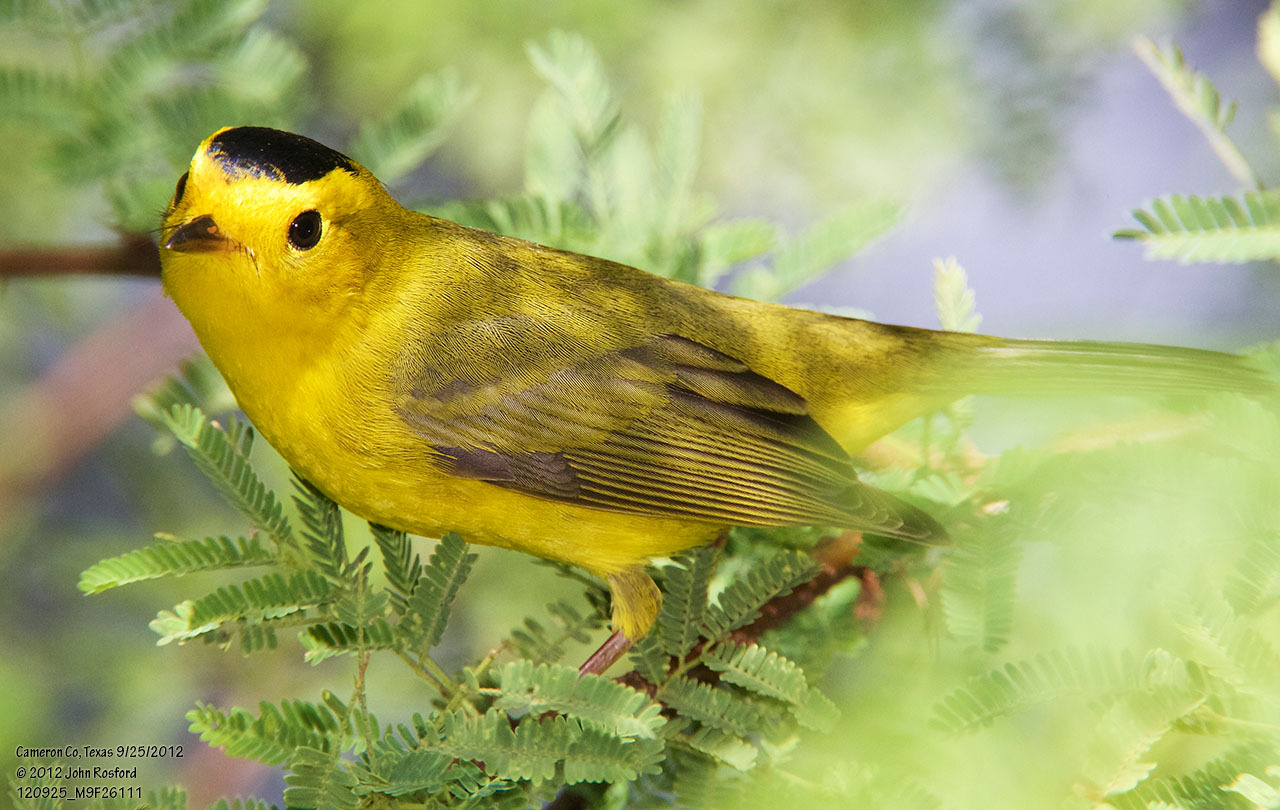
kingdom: Animalia
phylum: Chordata
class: Aves
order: Passeriformes
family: Parulidae
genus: Cardellina
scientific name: Cardellina pusilla
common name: Wilson's warbler
